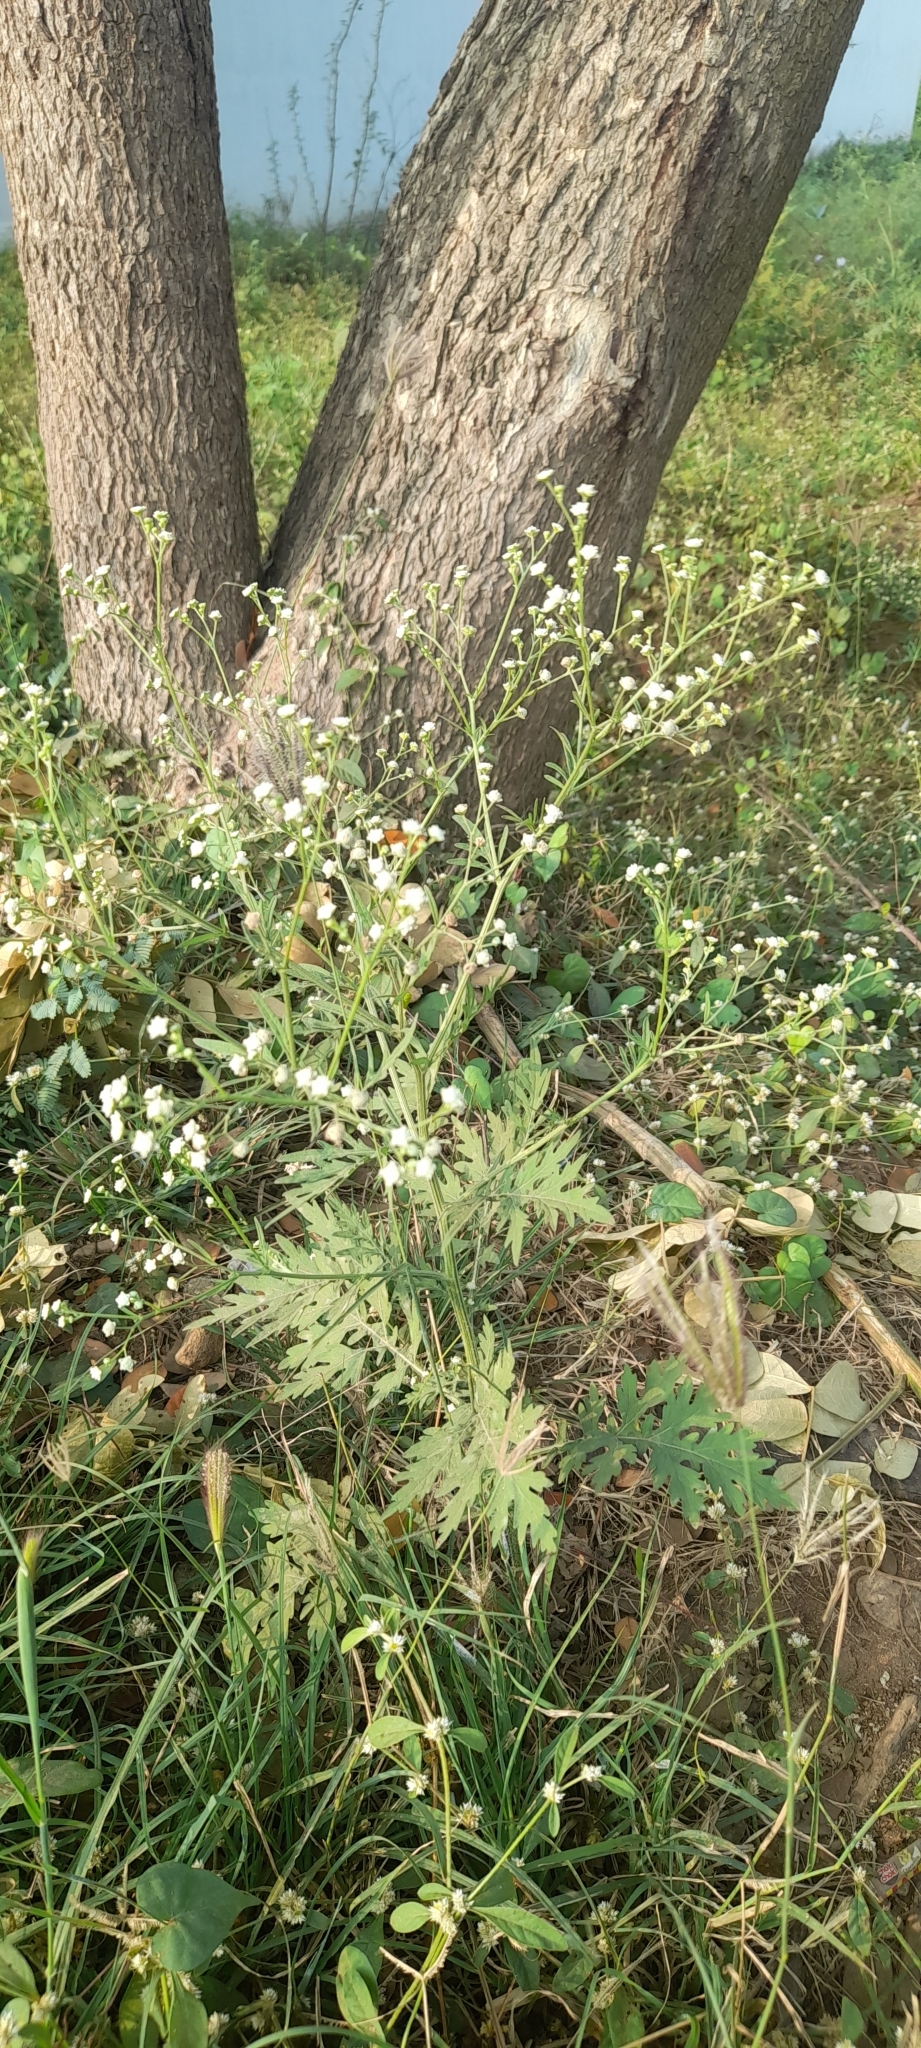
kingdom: Plantae
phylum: Tracheophyta
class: Magnoliopsida
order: Asterales
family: Asteraceae
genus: Parthenium
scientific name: Parthenium hysterophorus
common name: Santa maria feverfew
